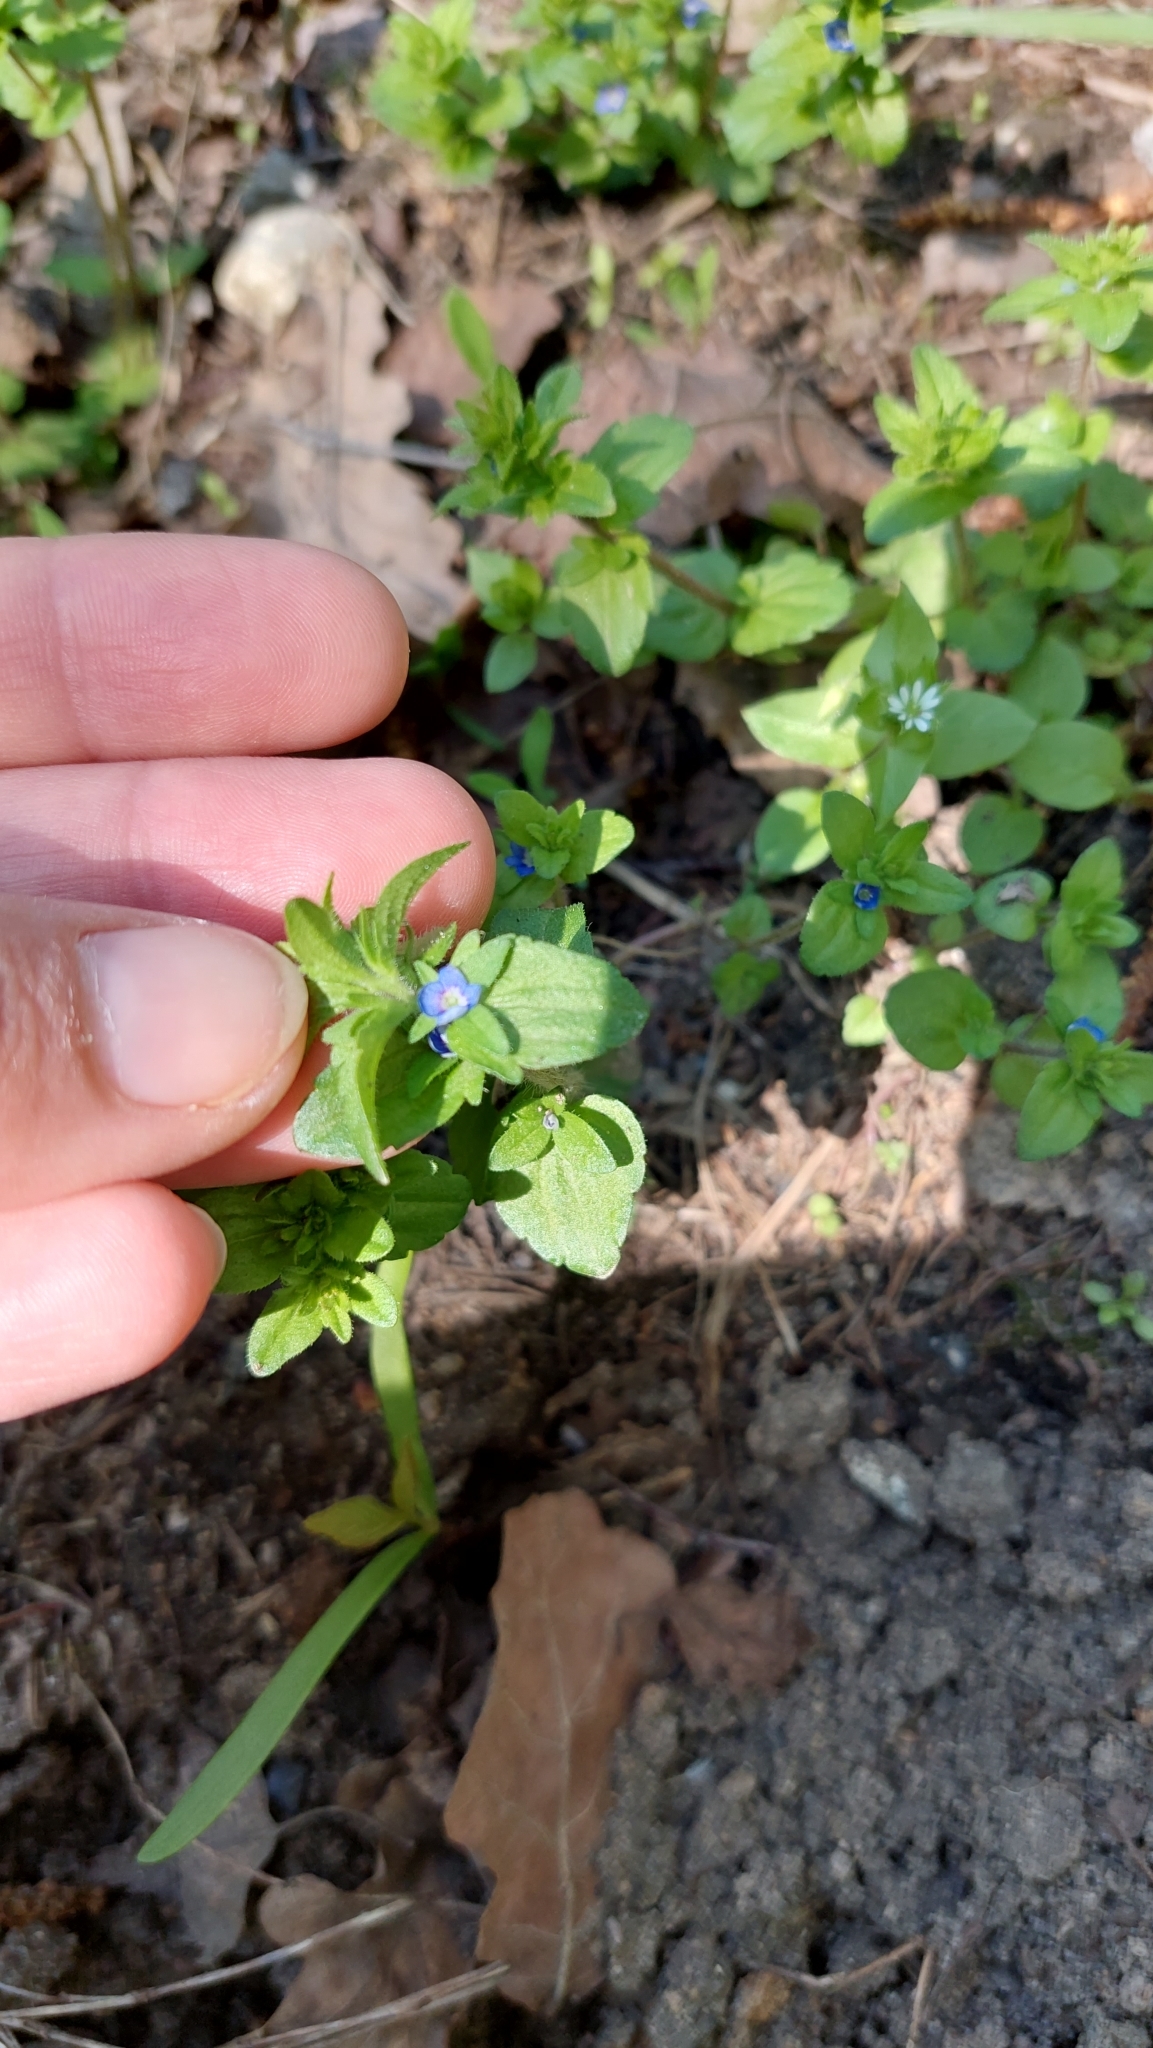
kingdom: Plantae
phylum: Tracheophyta
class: Magnoliopsida
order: Lamiales
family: Plantaginaceae
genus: Veronica
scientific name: Veronica arvensis
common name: Corn speedwell
